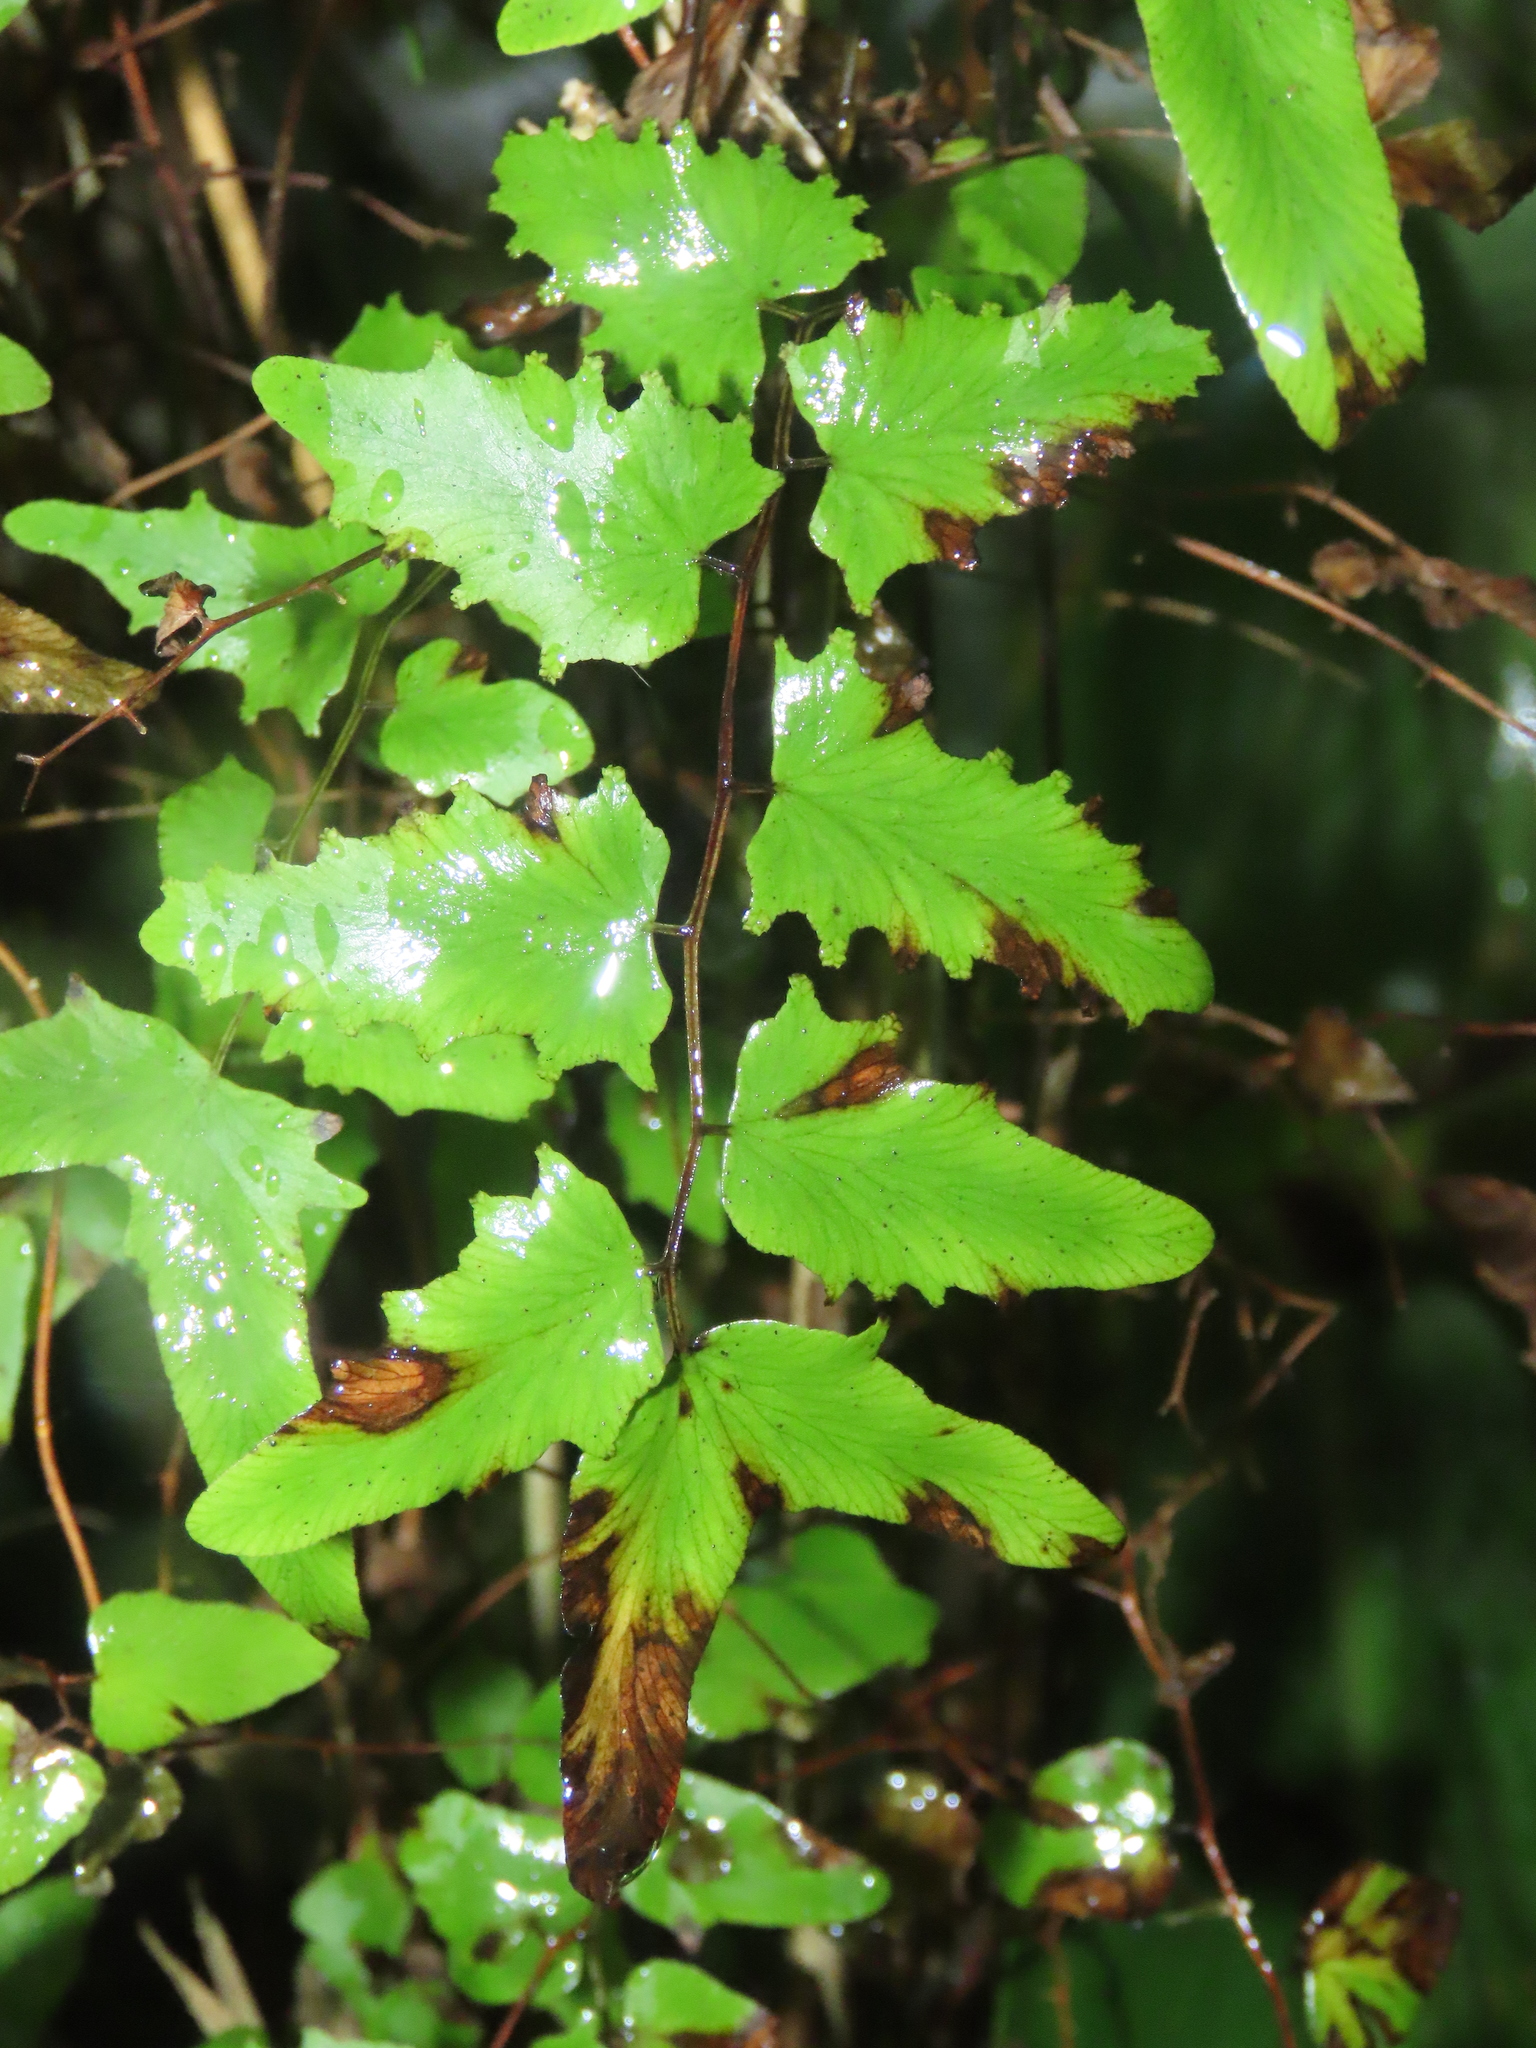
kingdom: Plantae
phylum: Tracheophyta
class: Polypodiopsida
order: Schizaeales
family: Lygodiaceae
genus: Lygodium
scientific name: Lygodium microphyllum
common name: Small-leaf climbing fern
